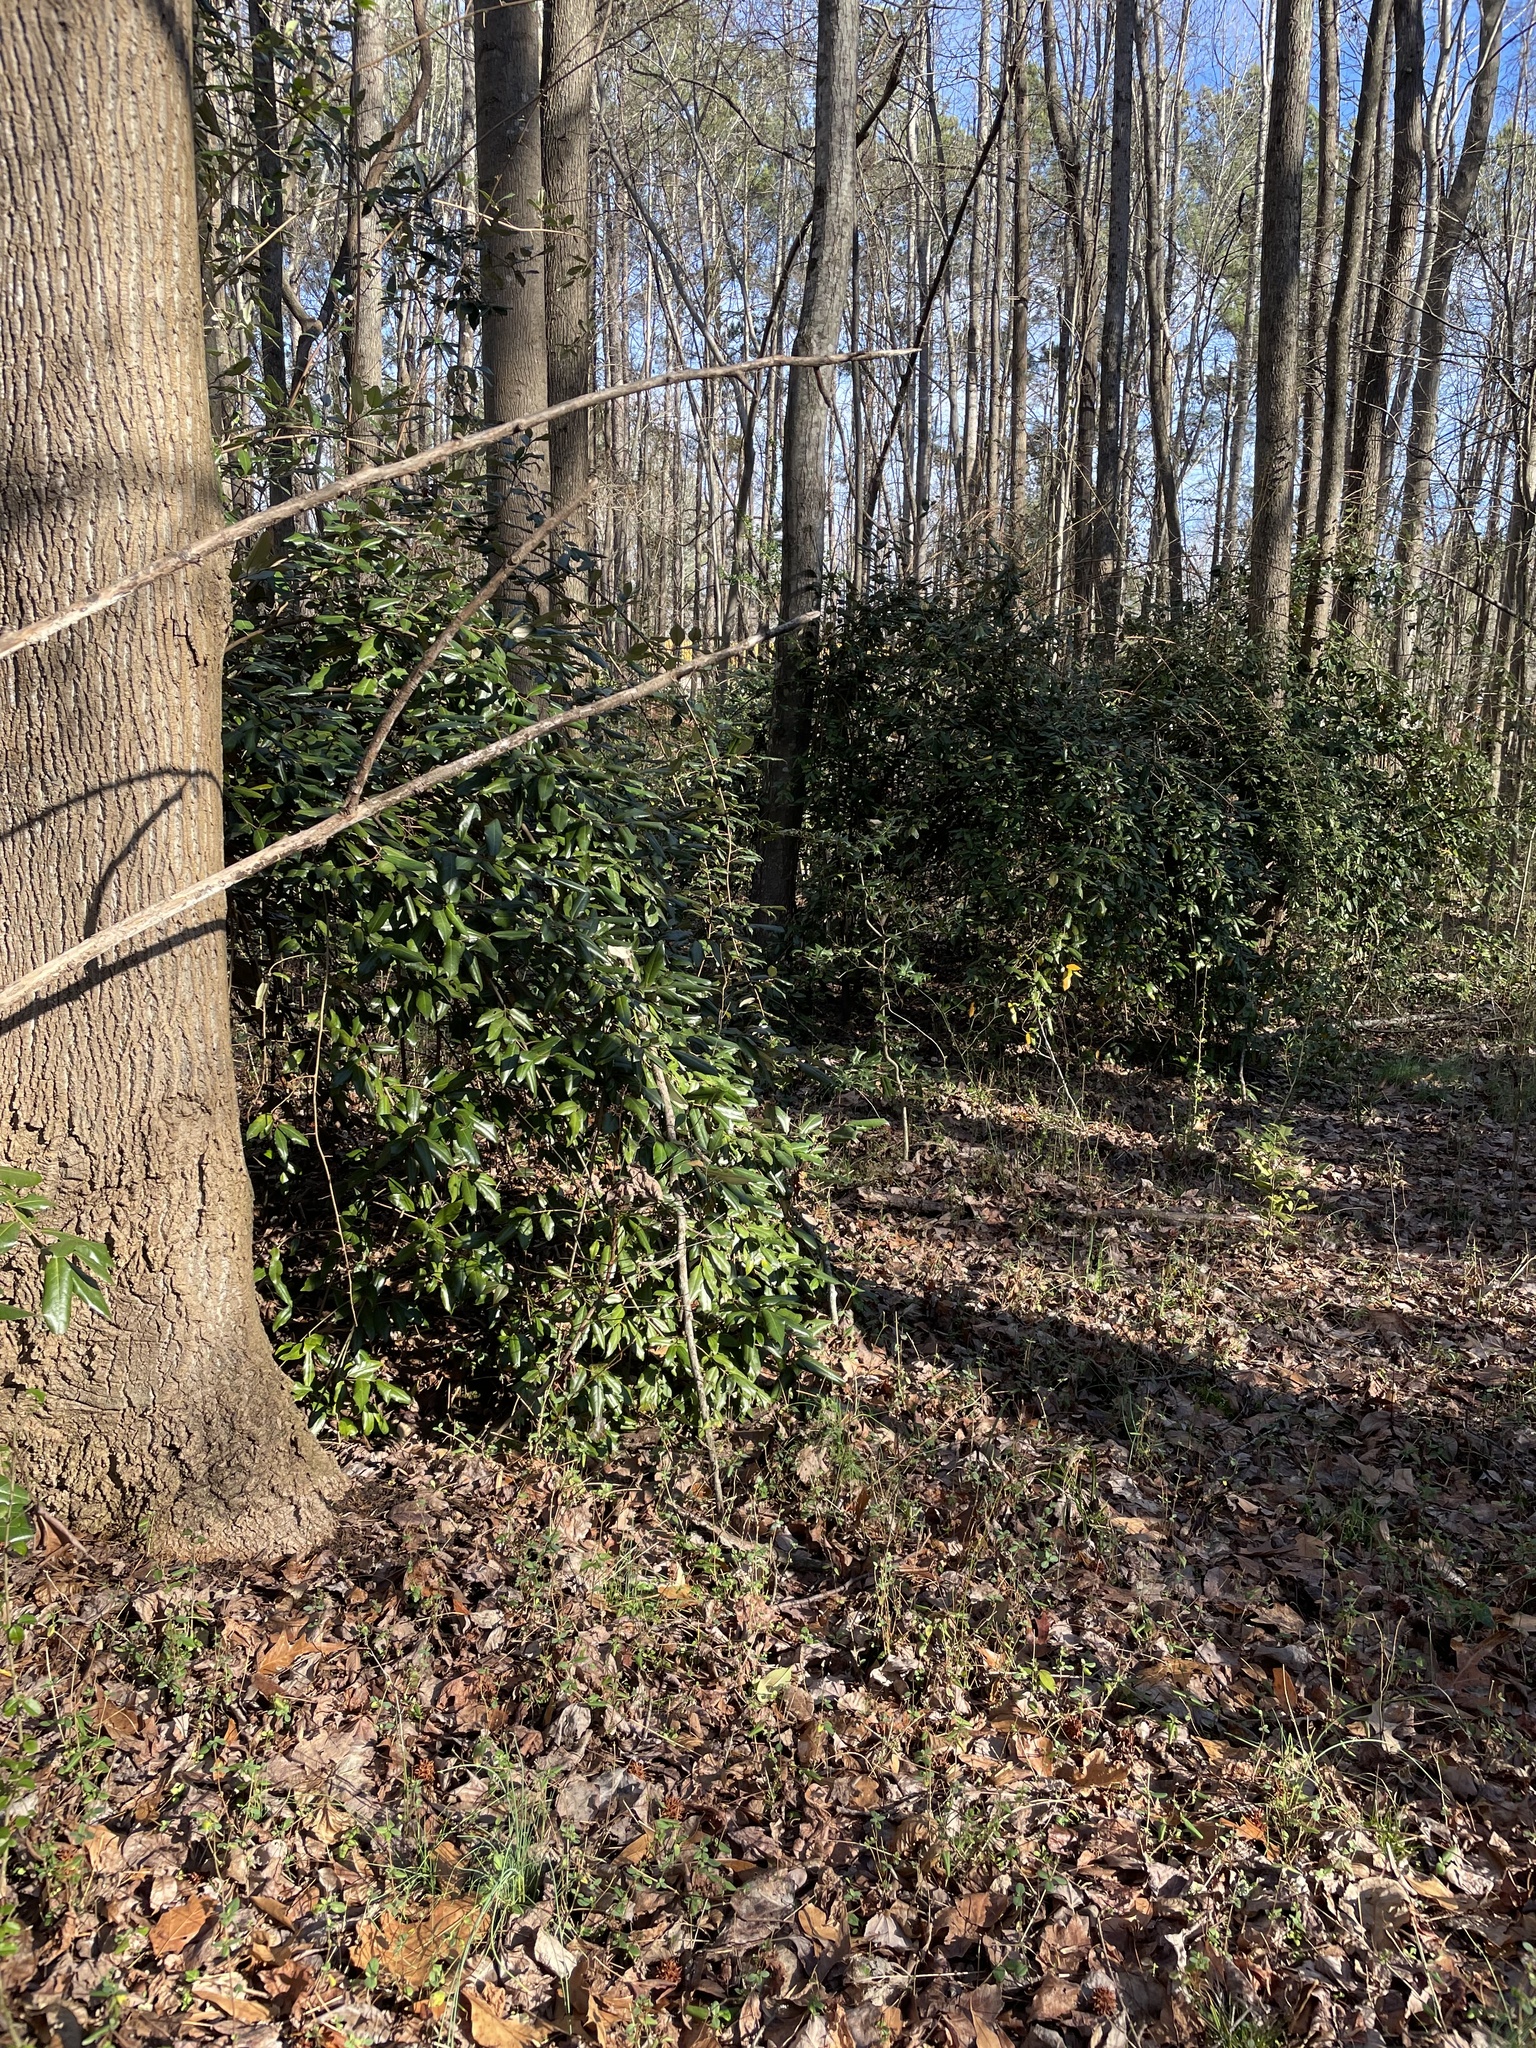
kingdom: Plantae
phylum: Tracheophyta
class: Magnoliopsida
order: Rosales
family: Elaeagnaceae
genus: Elaeagnus
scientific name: Elaeagnus pungens
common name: Spiny oleaster
